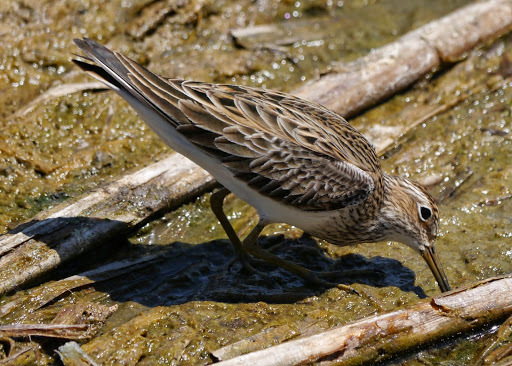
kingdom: Animalia
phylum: Chordata
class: Aves
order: Charadriiformes
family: Scolopacidae
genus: Calidris
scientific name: Calidris melanotos
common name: Pectoral sandpiper
